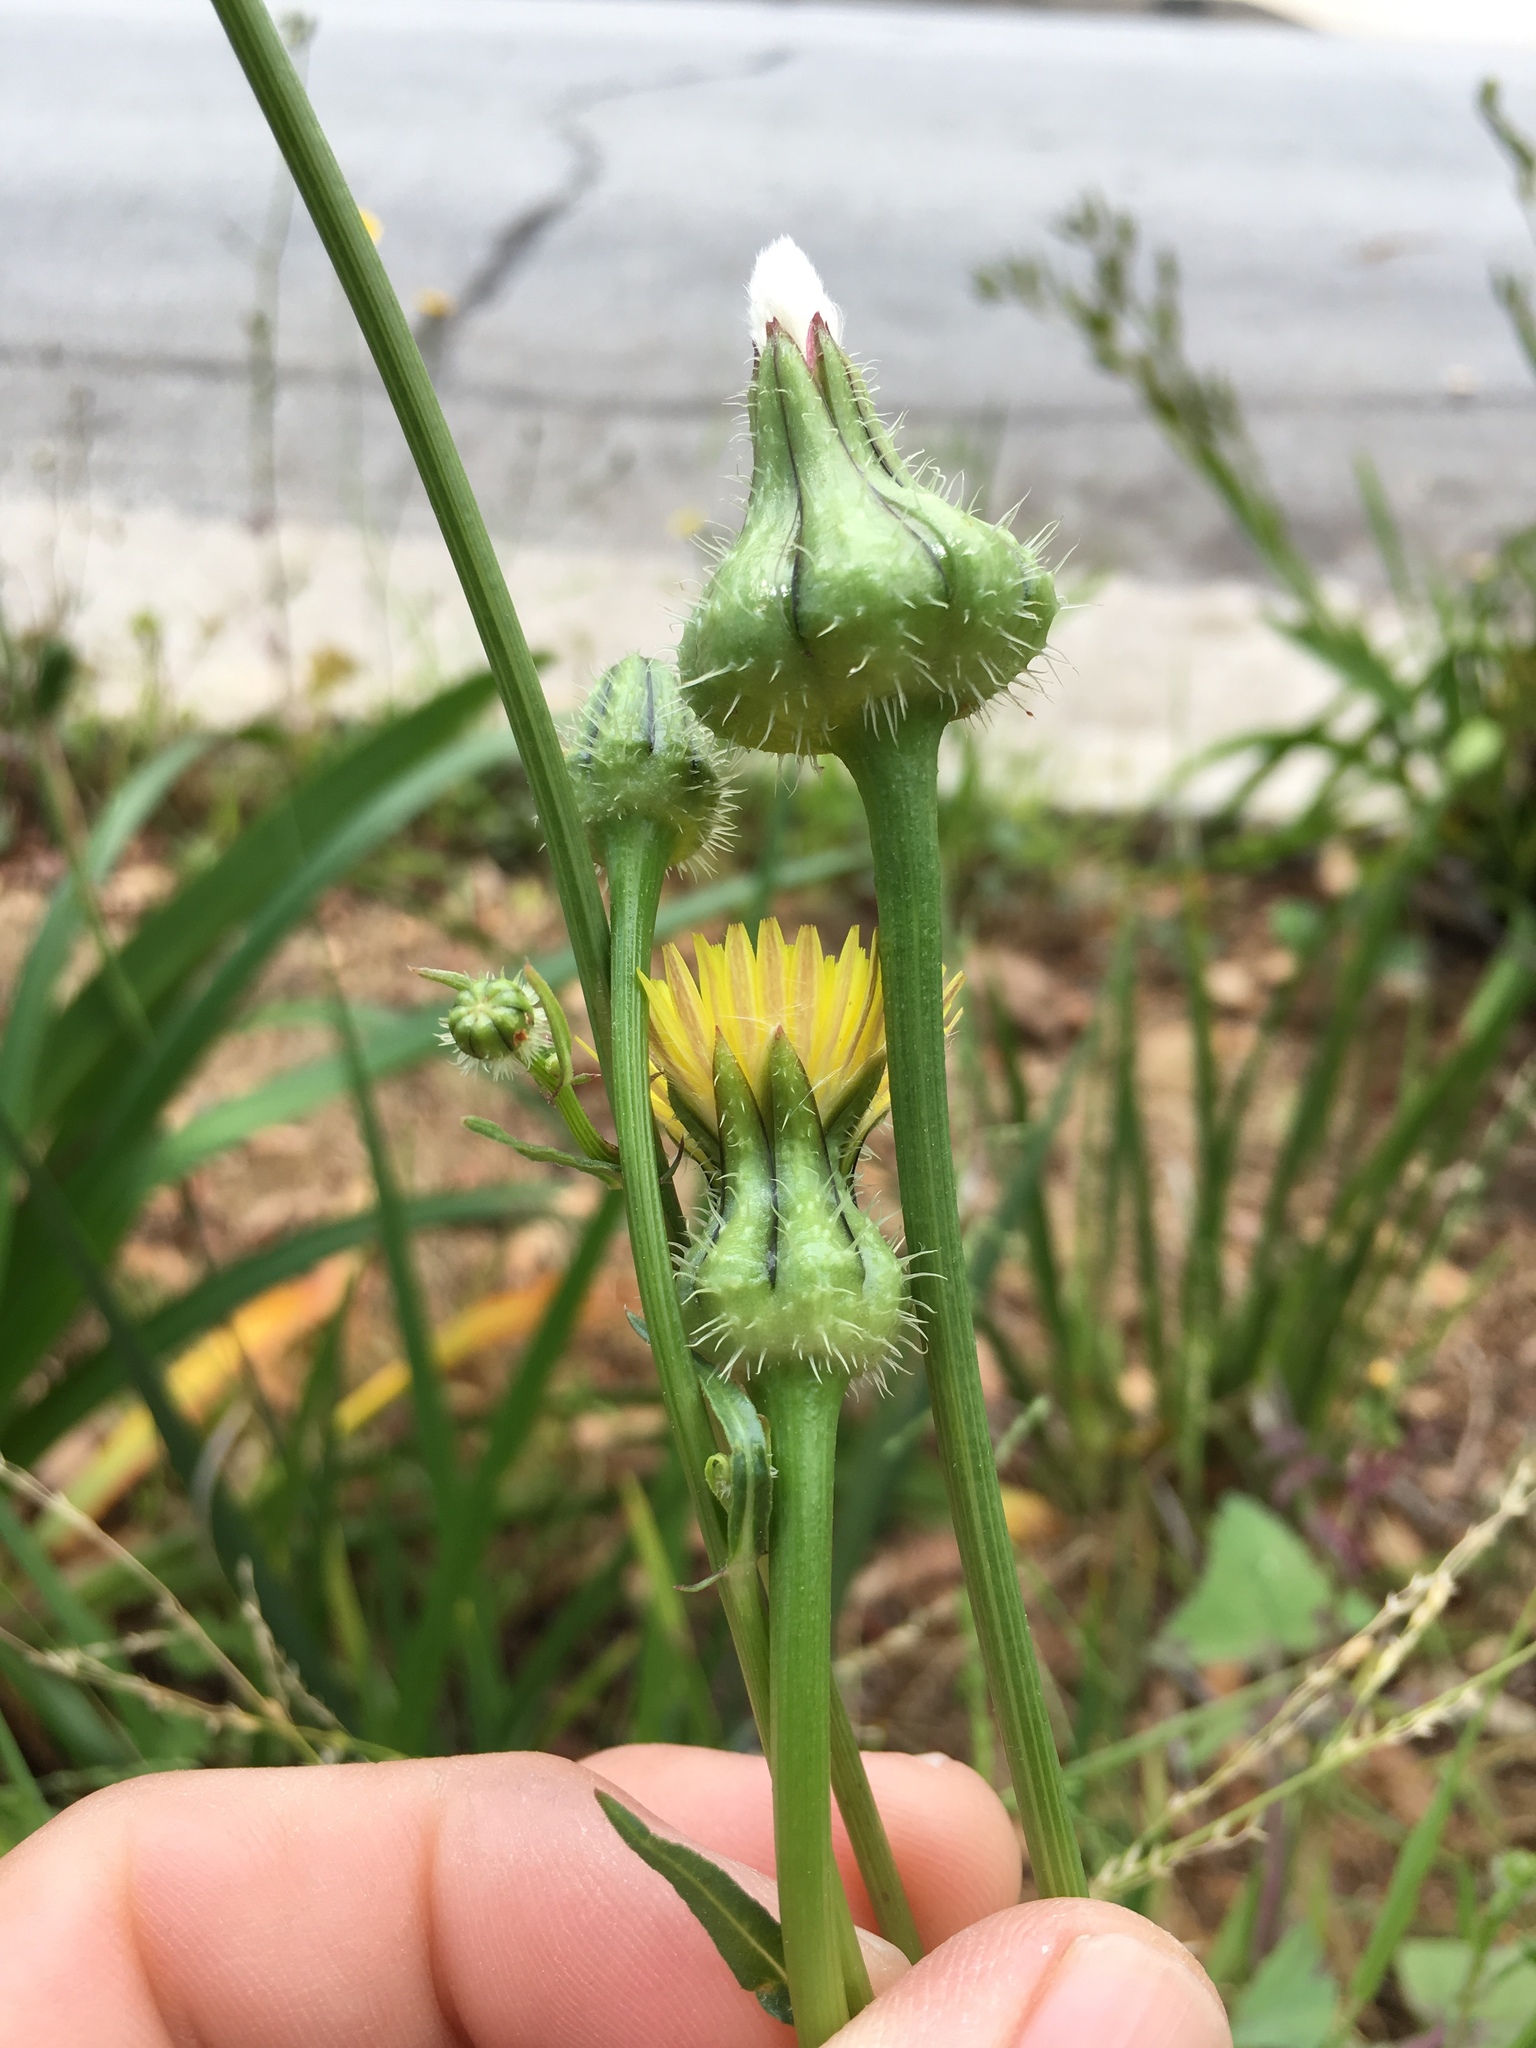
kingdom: Plantae
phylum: Tracheophyta
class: Magnoliopsida
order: Asterales
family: Asteraceae
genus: Urospermum
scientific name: Urospermum picroides
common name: False hawkbit
